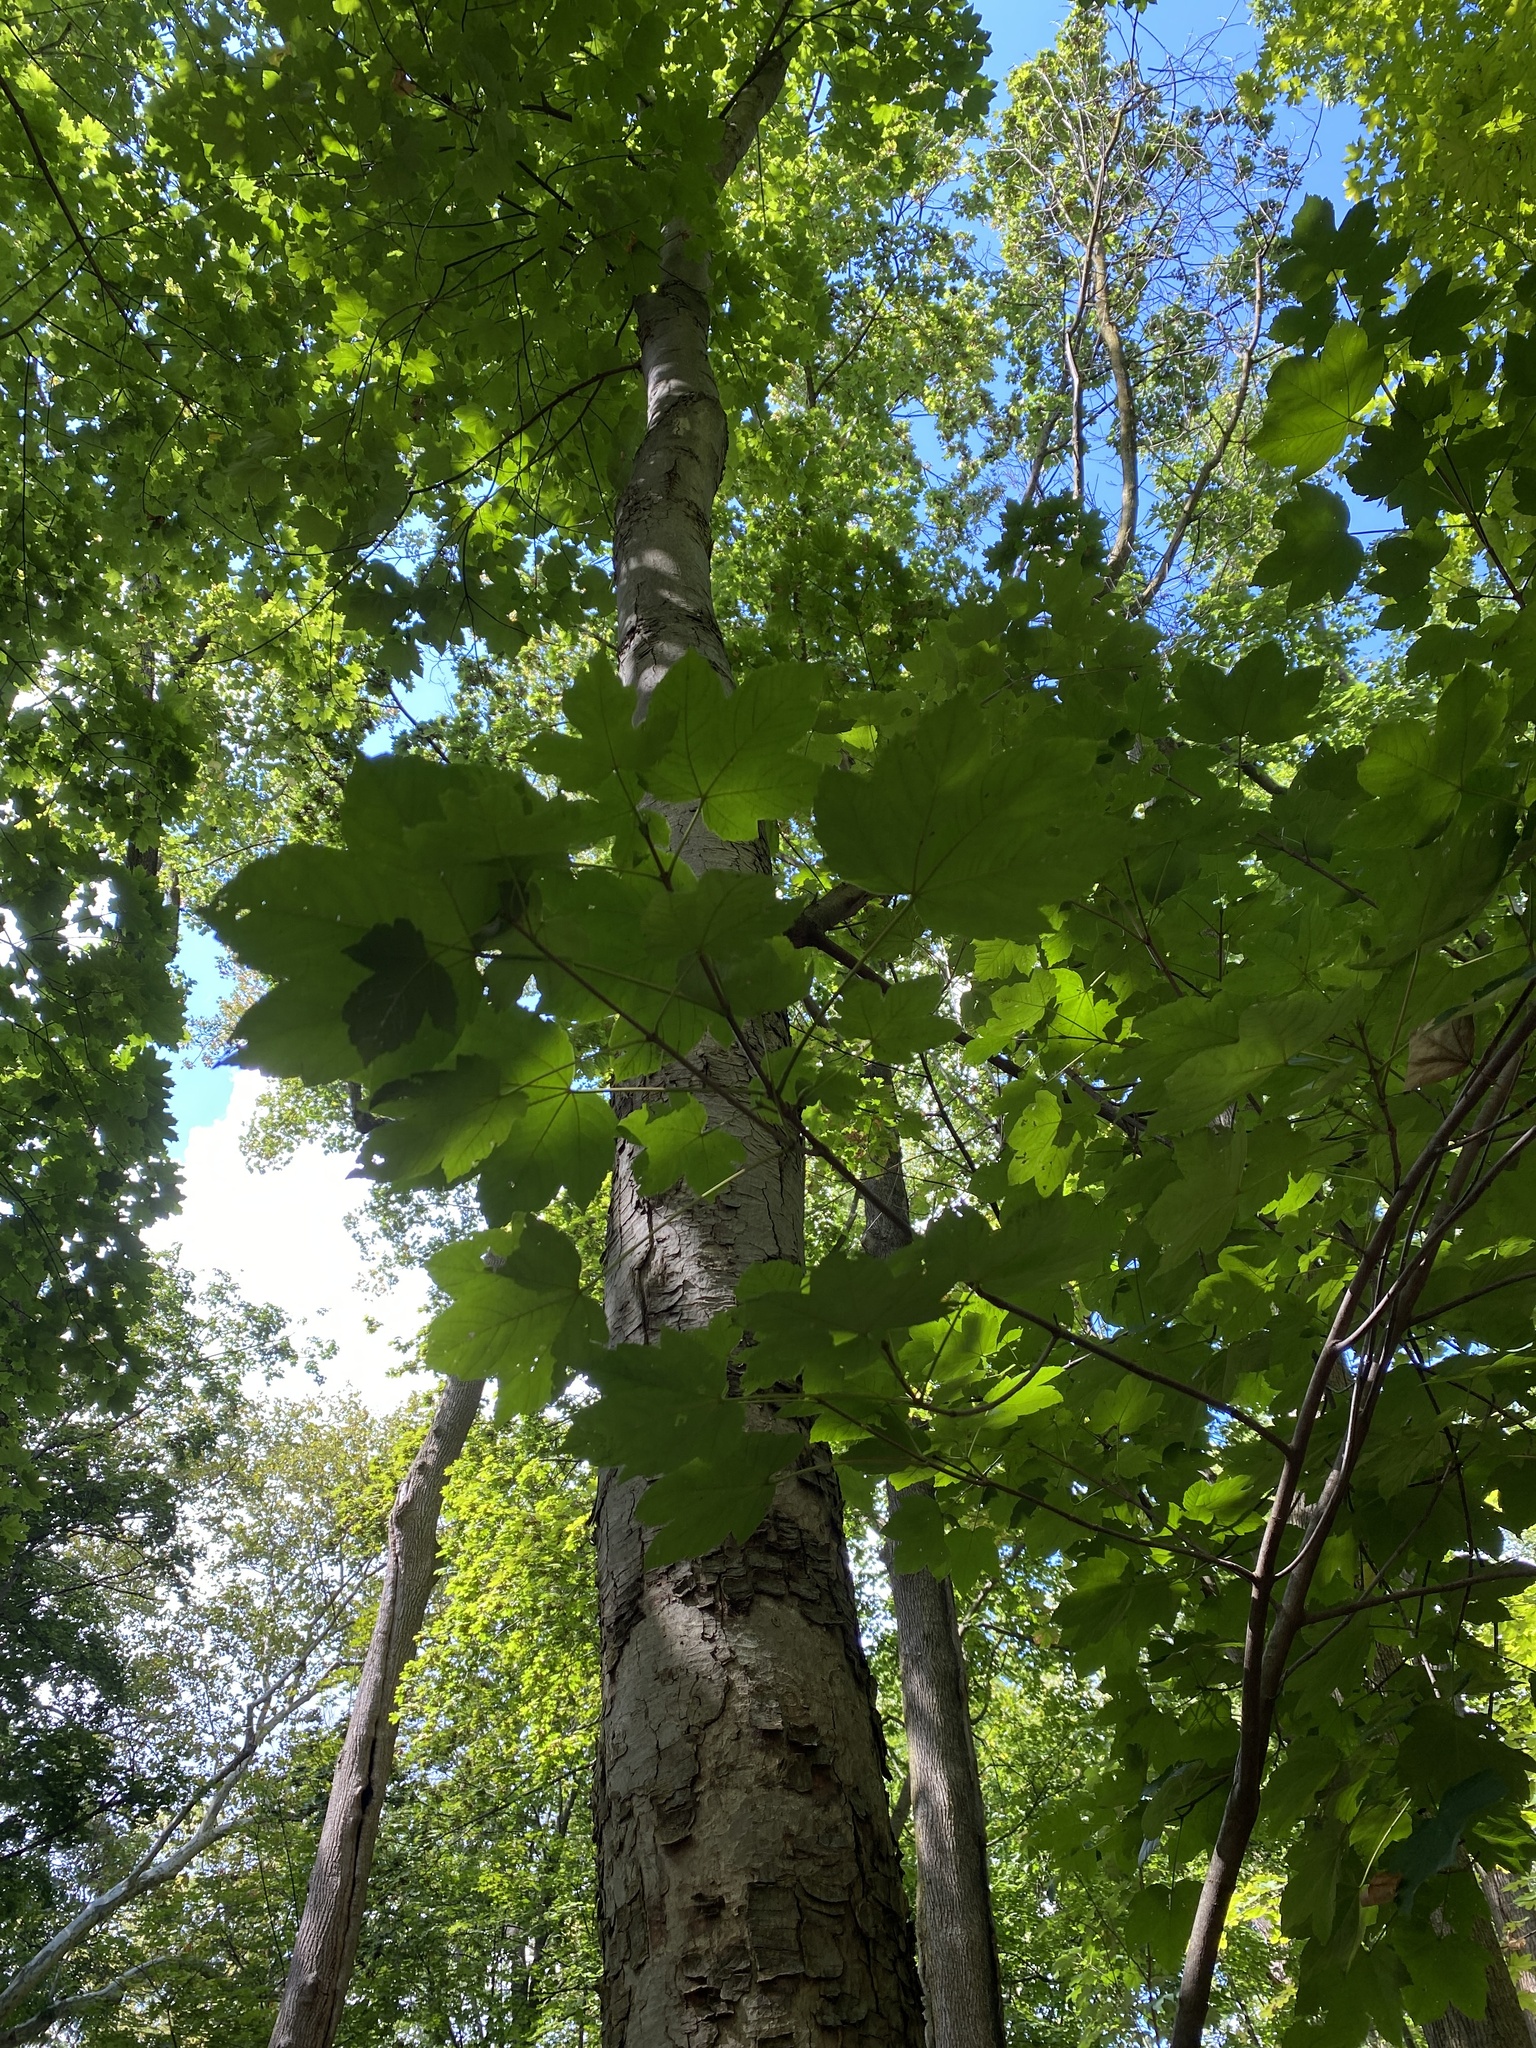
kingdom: Plantae
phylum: Tracheophyta
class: Magnoliopsida
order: Sapindales
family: Sapindaceae
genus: Acer
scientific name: Acer pseudoplatanus
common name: Sycamore
